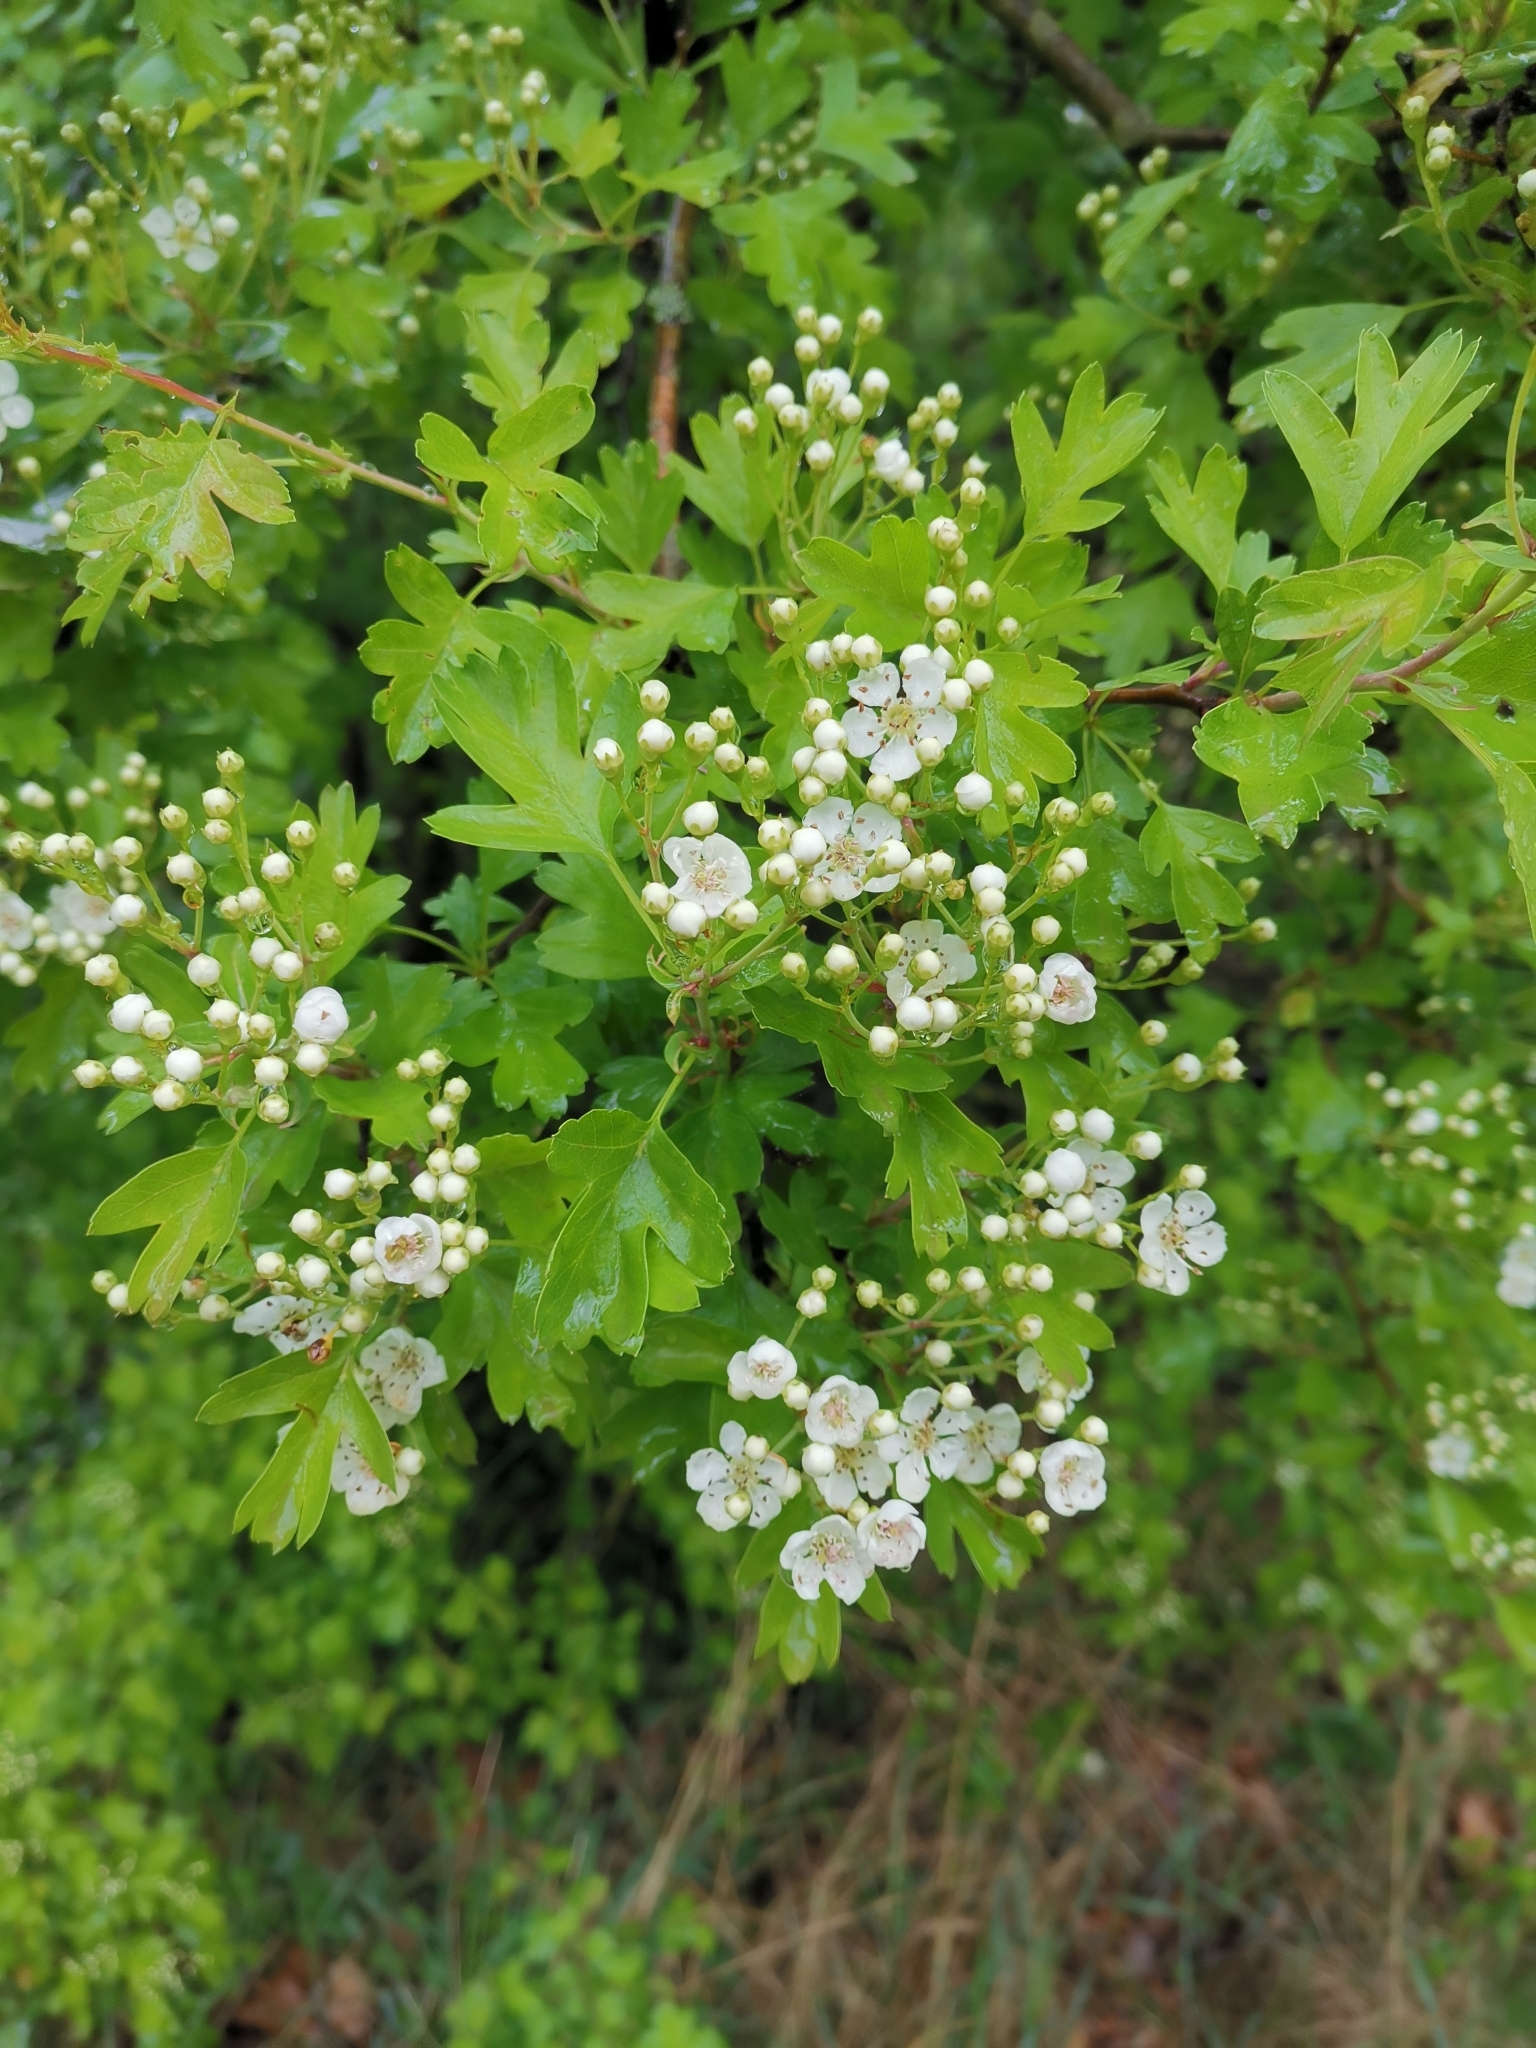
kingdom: Plantae
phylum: Tracheophyta
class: Magnoliopsida
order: Rosales
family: Rosaceae
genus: Crataegus
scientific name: Crataegus monogyna
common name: Hawthorn
